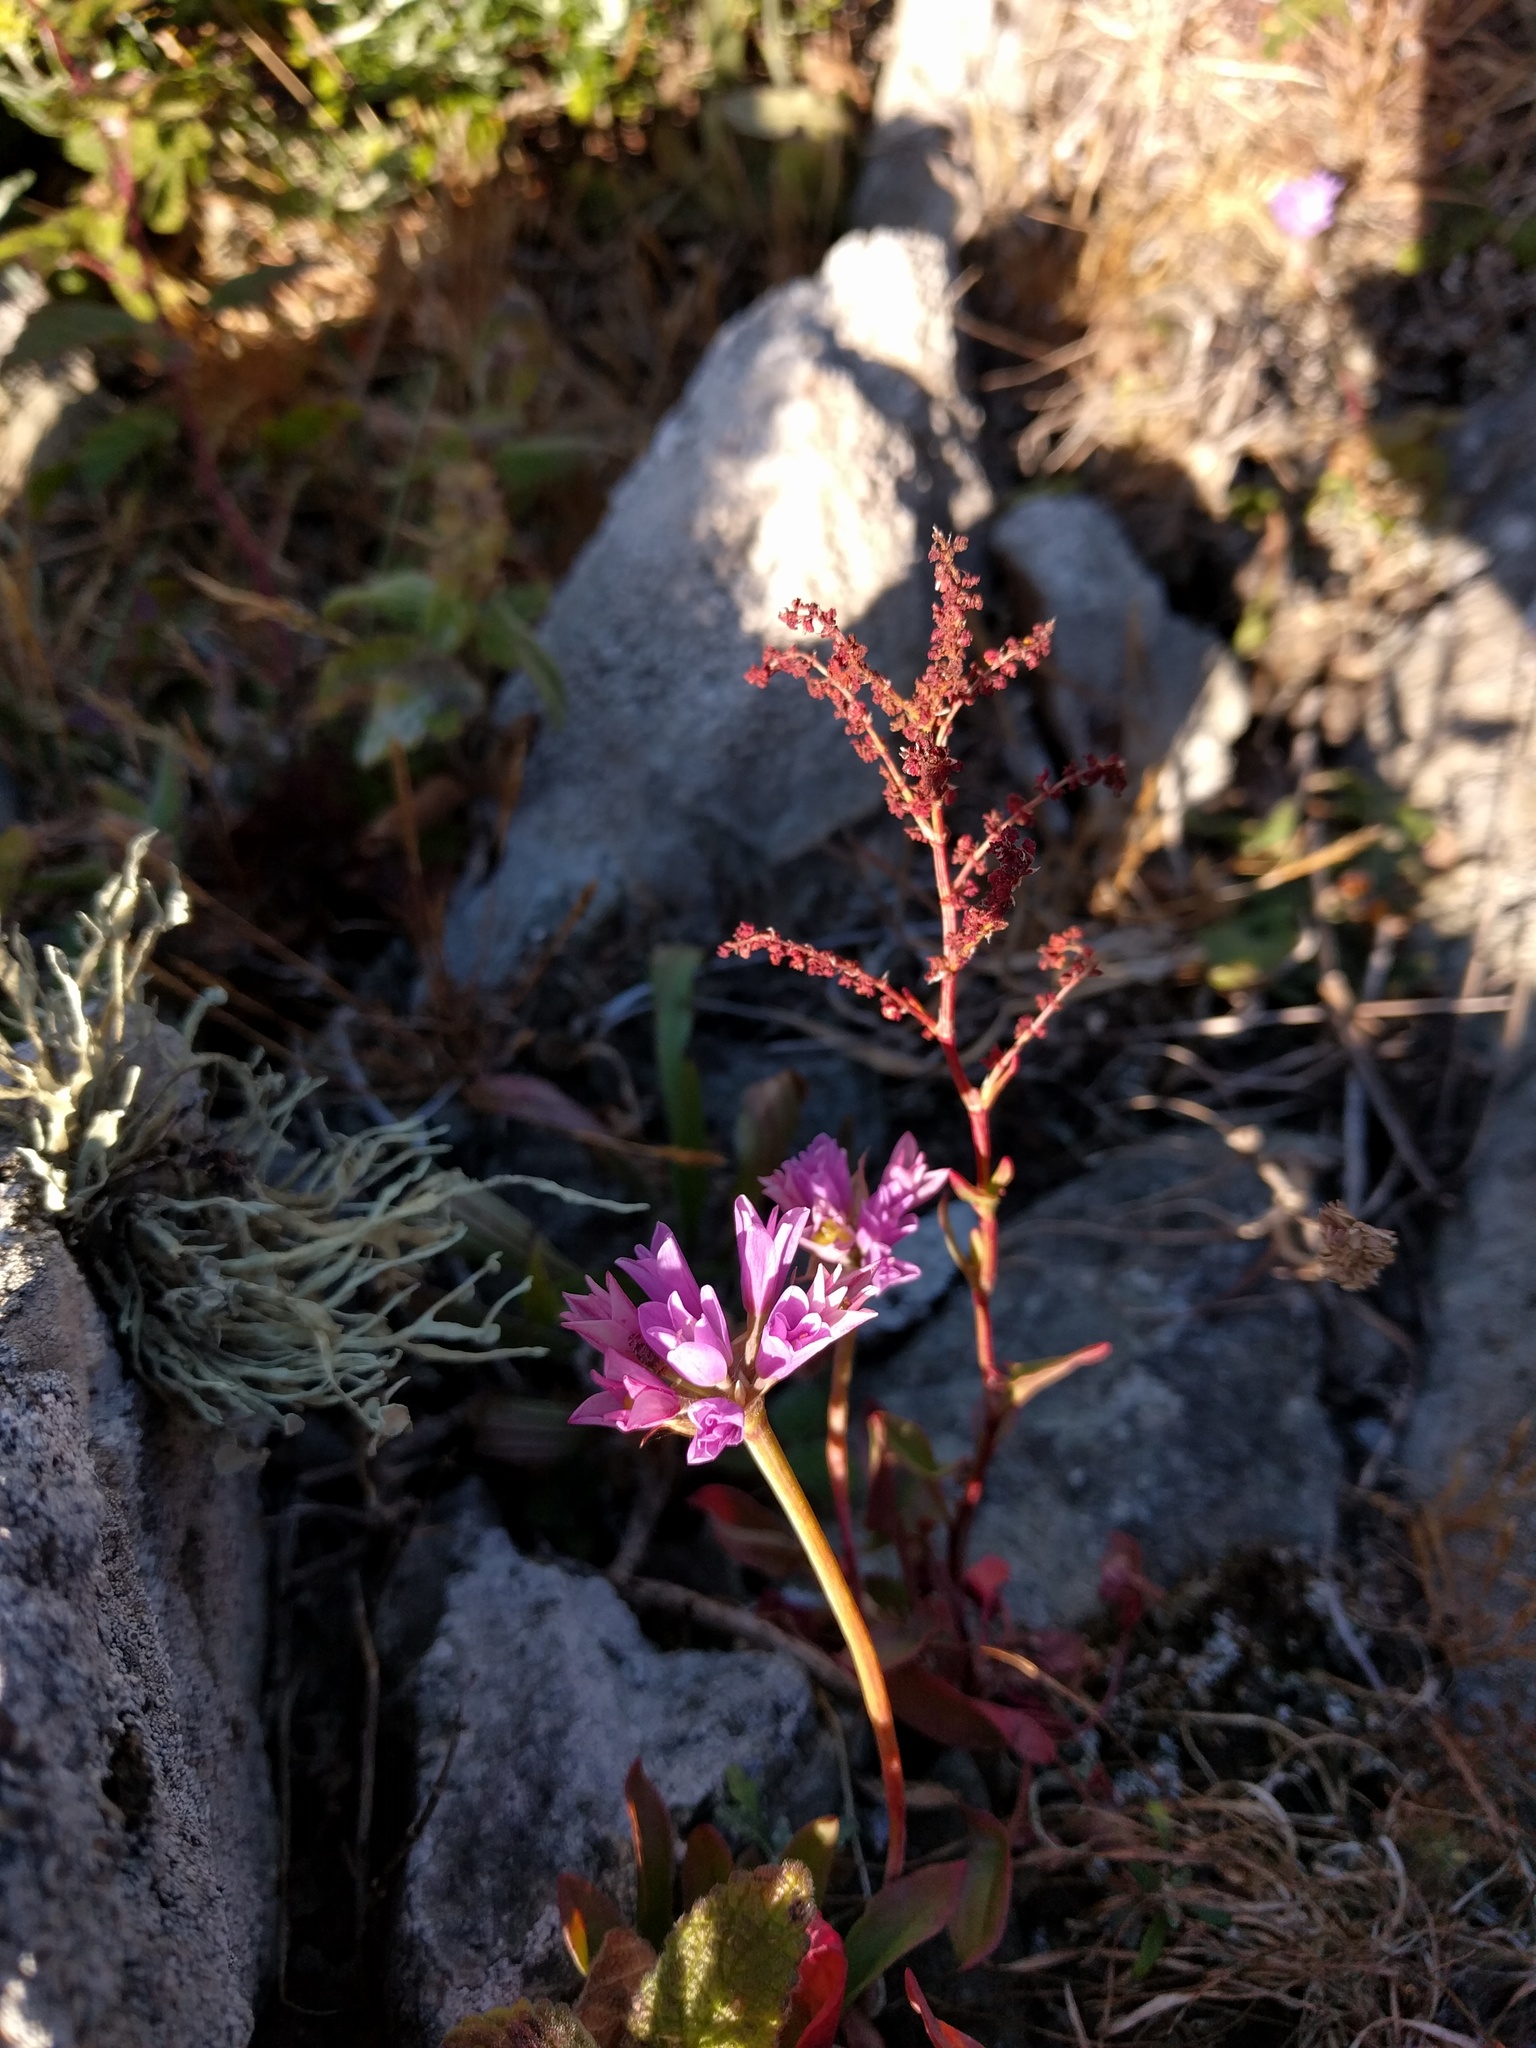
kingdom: Plantae
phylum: Tracheophyta
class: Liliopsida
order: Asparagales
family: Amaryllidaceae
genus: Allium
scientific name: Allium dichlamydeum
